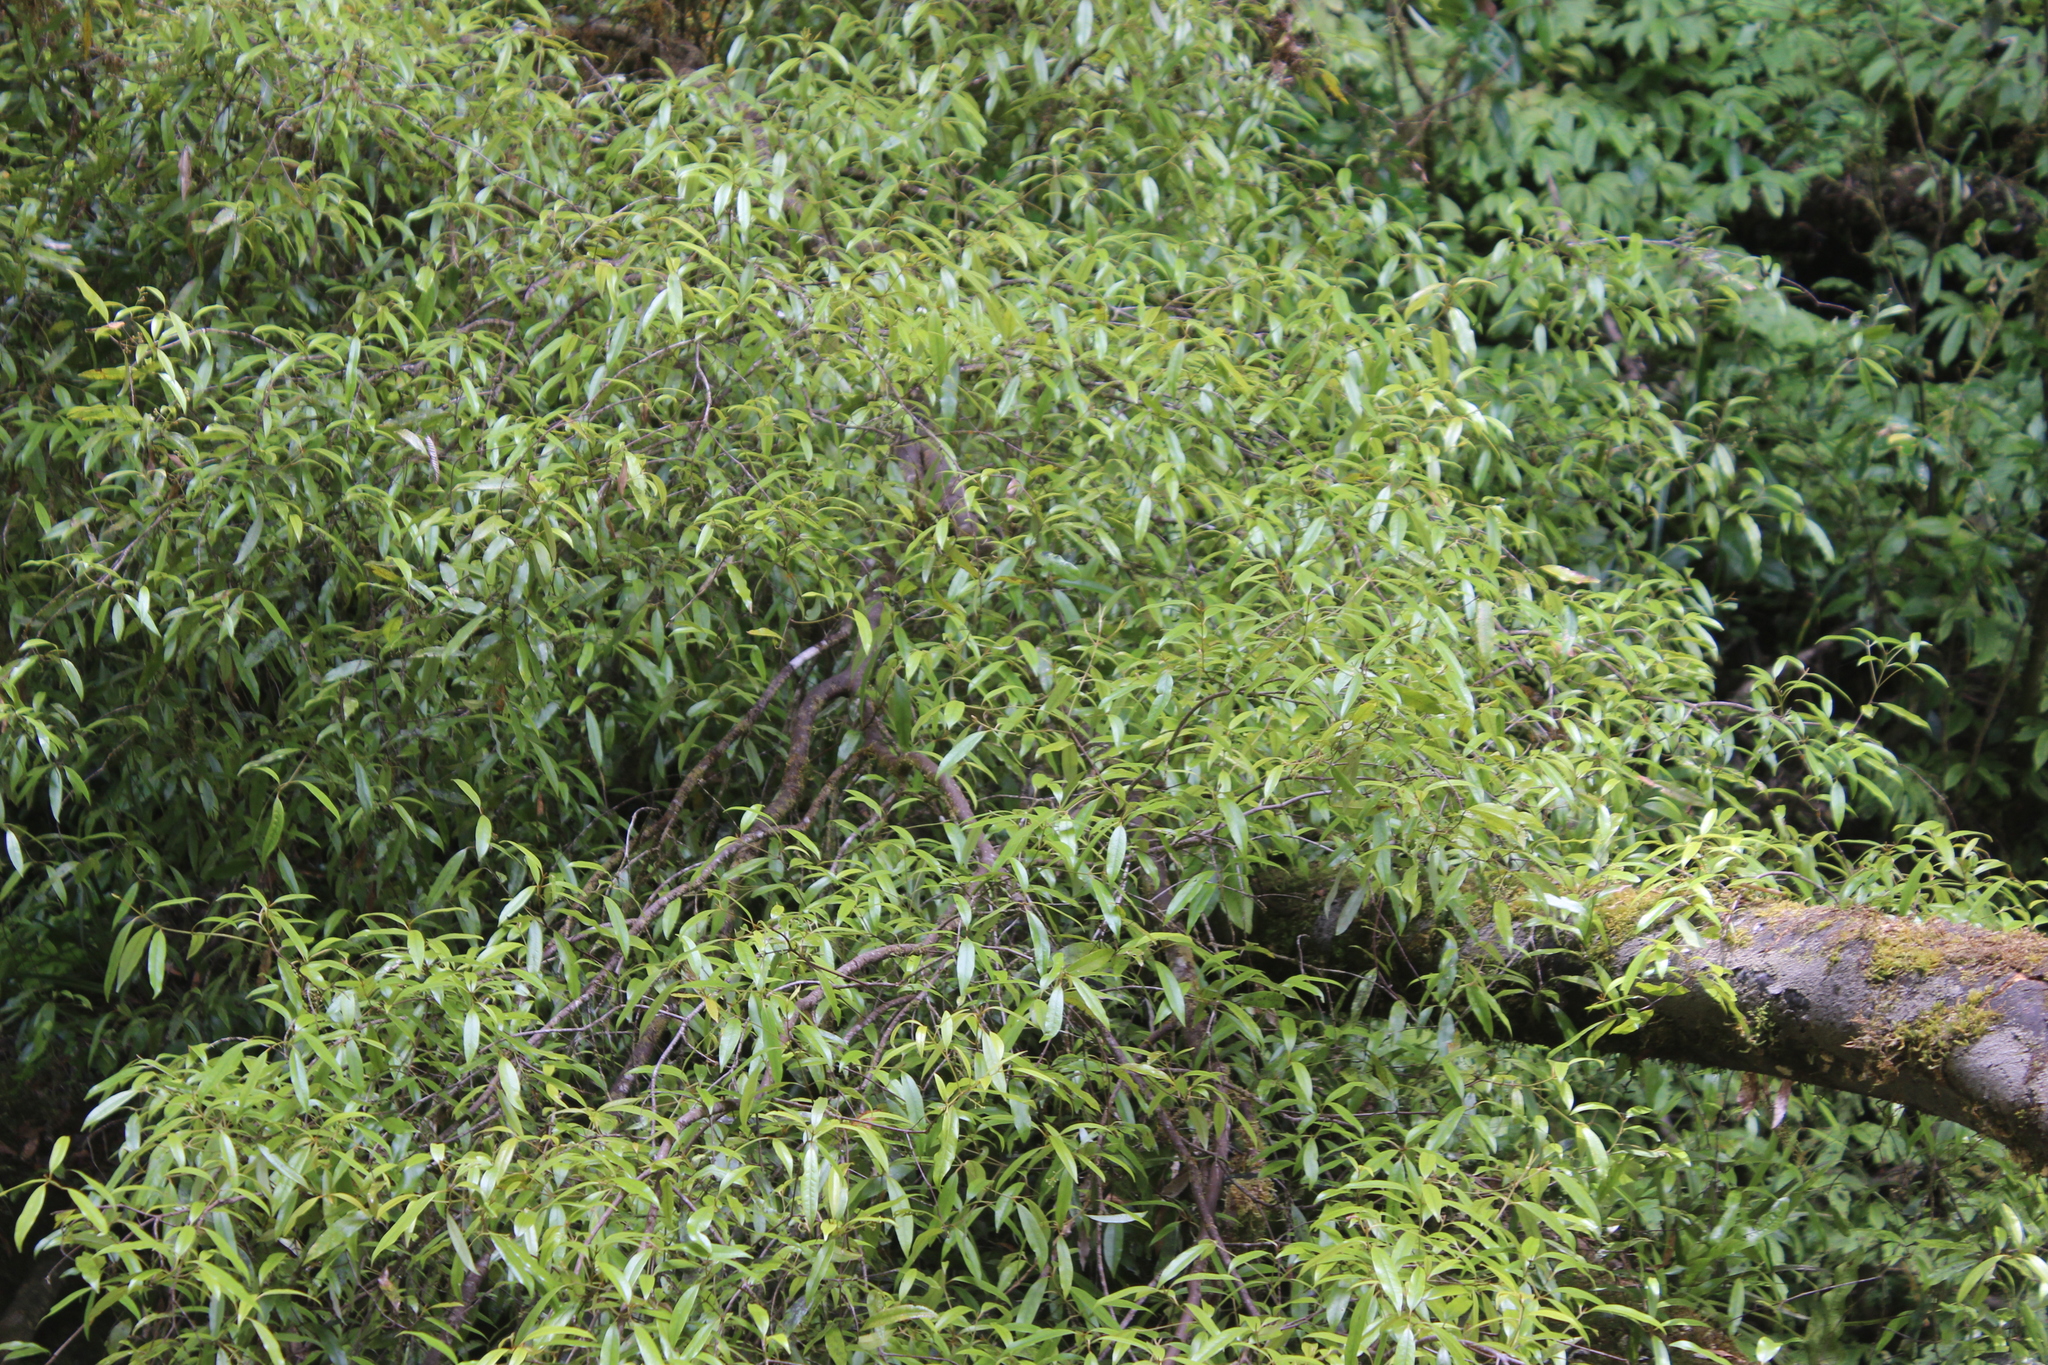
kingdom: Plantae
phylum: Tracheophyta
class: Magnoliopsida
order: Laurales
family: Lauraceae
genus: Beilschmiedia
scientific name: Beilschmiedia tawa
